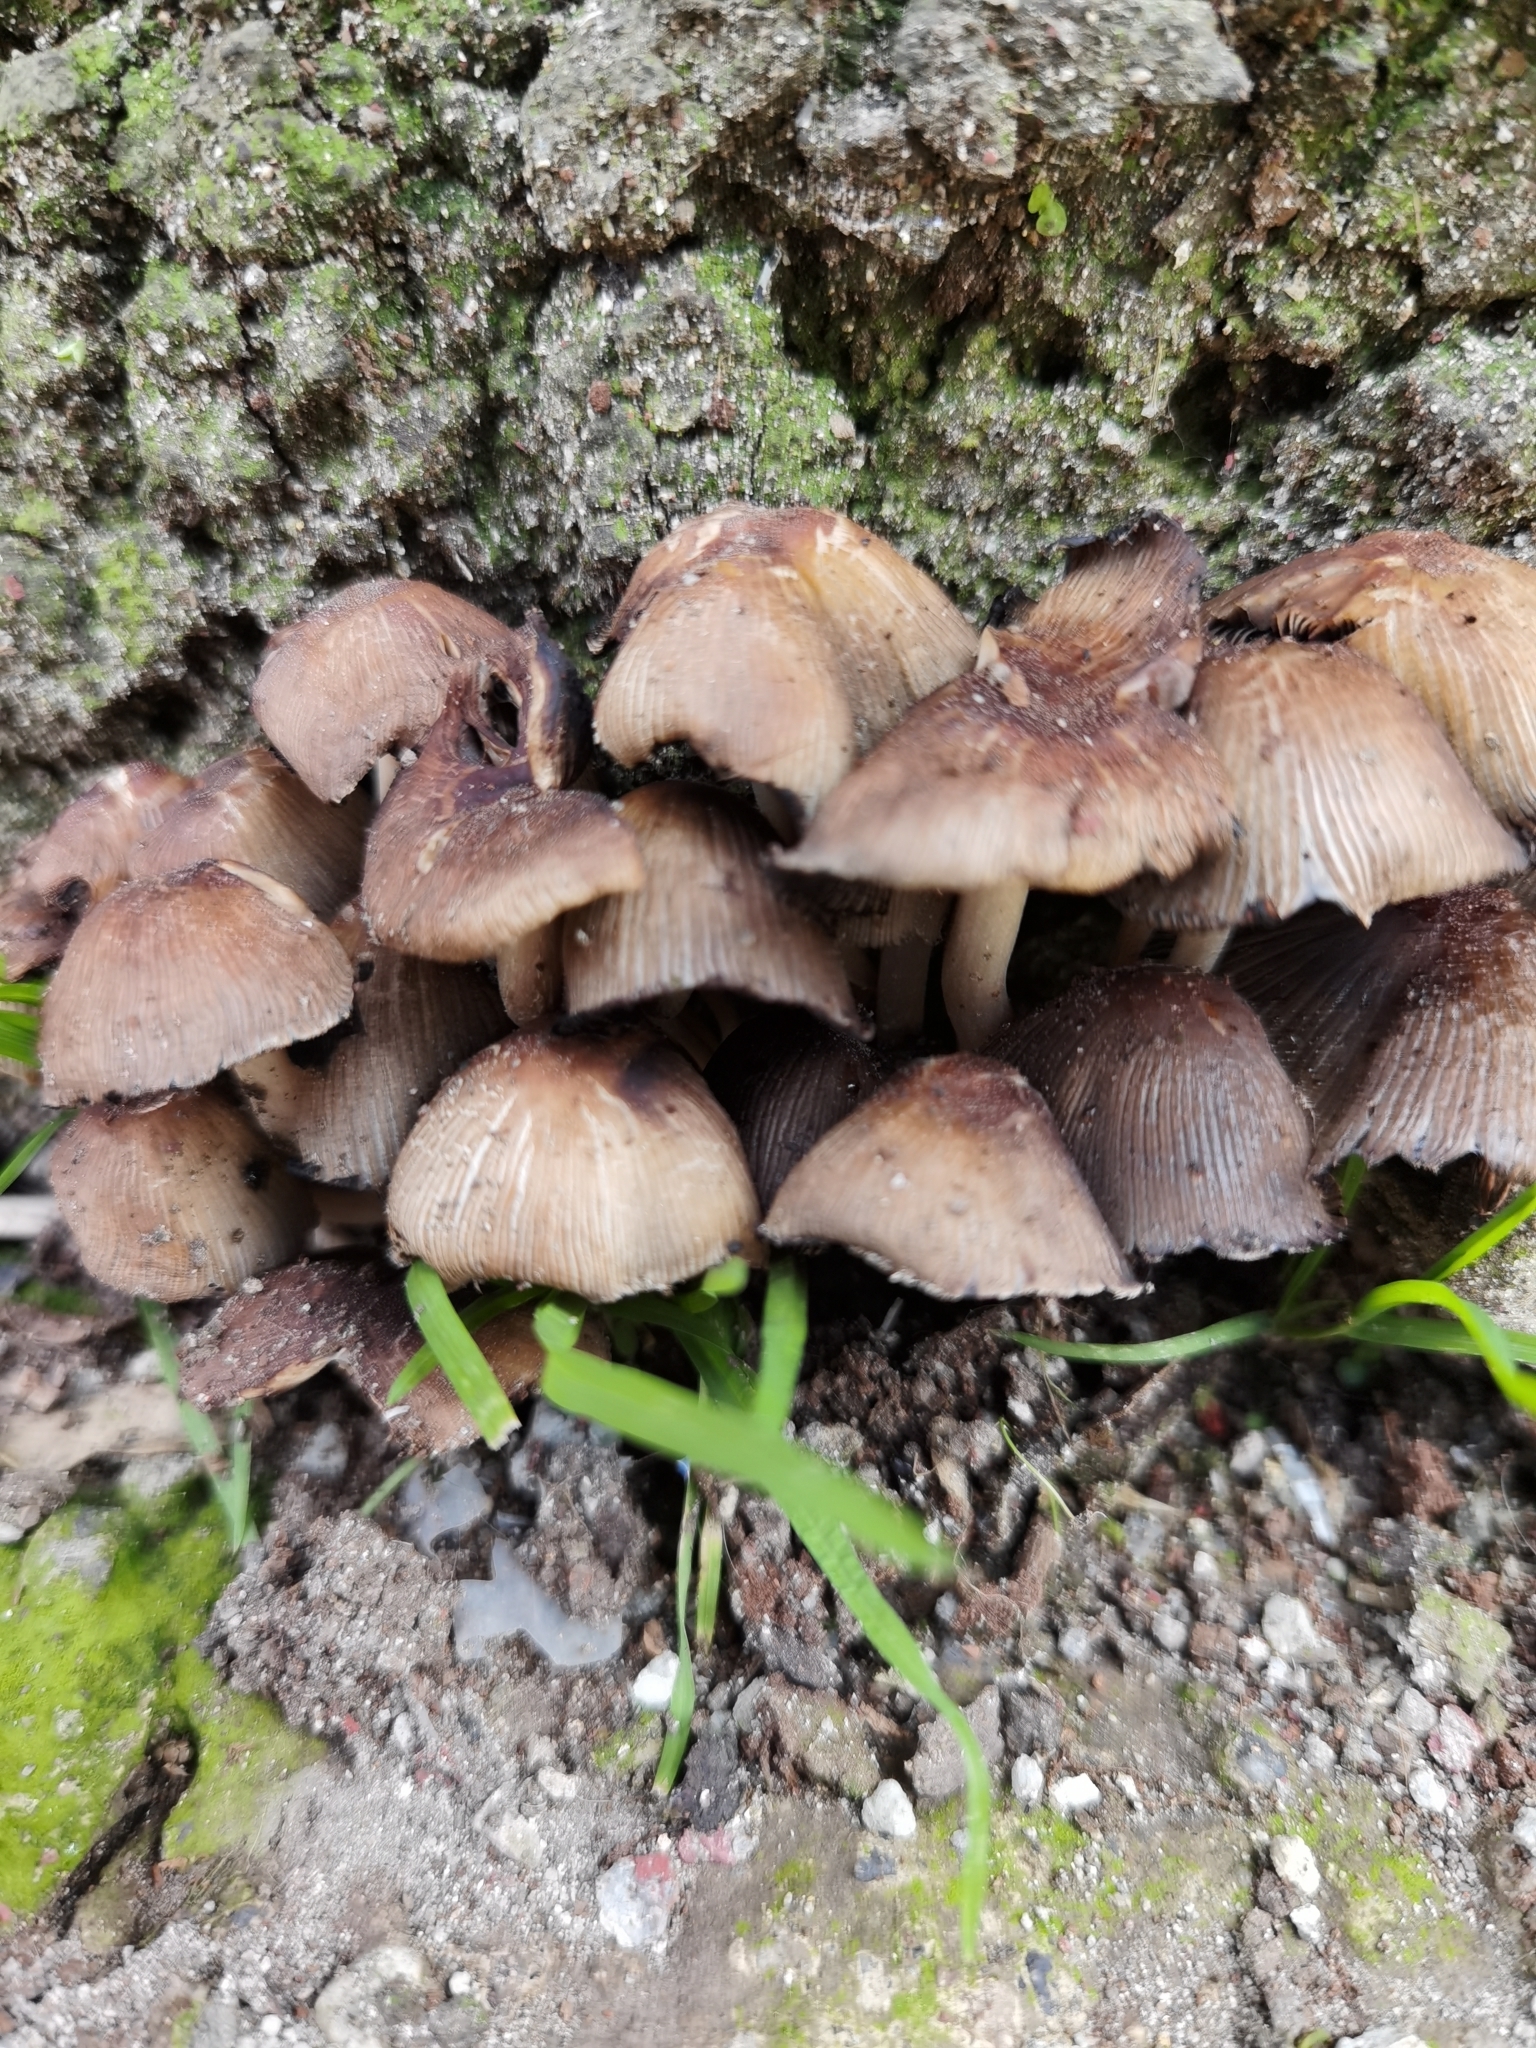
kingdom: Fungi
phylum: Basidiomycota
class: Agaricomycetes
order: Agaricales
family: Psathyrellaceae
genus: Coprinellus
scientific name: Coprinellus micaceus
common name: Glistening ink-cap
